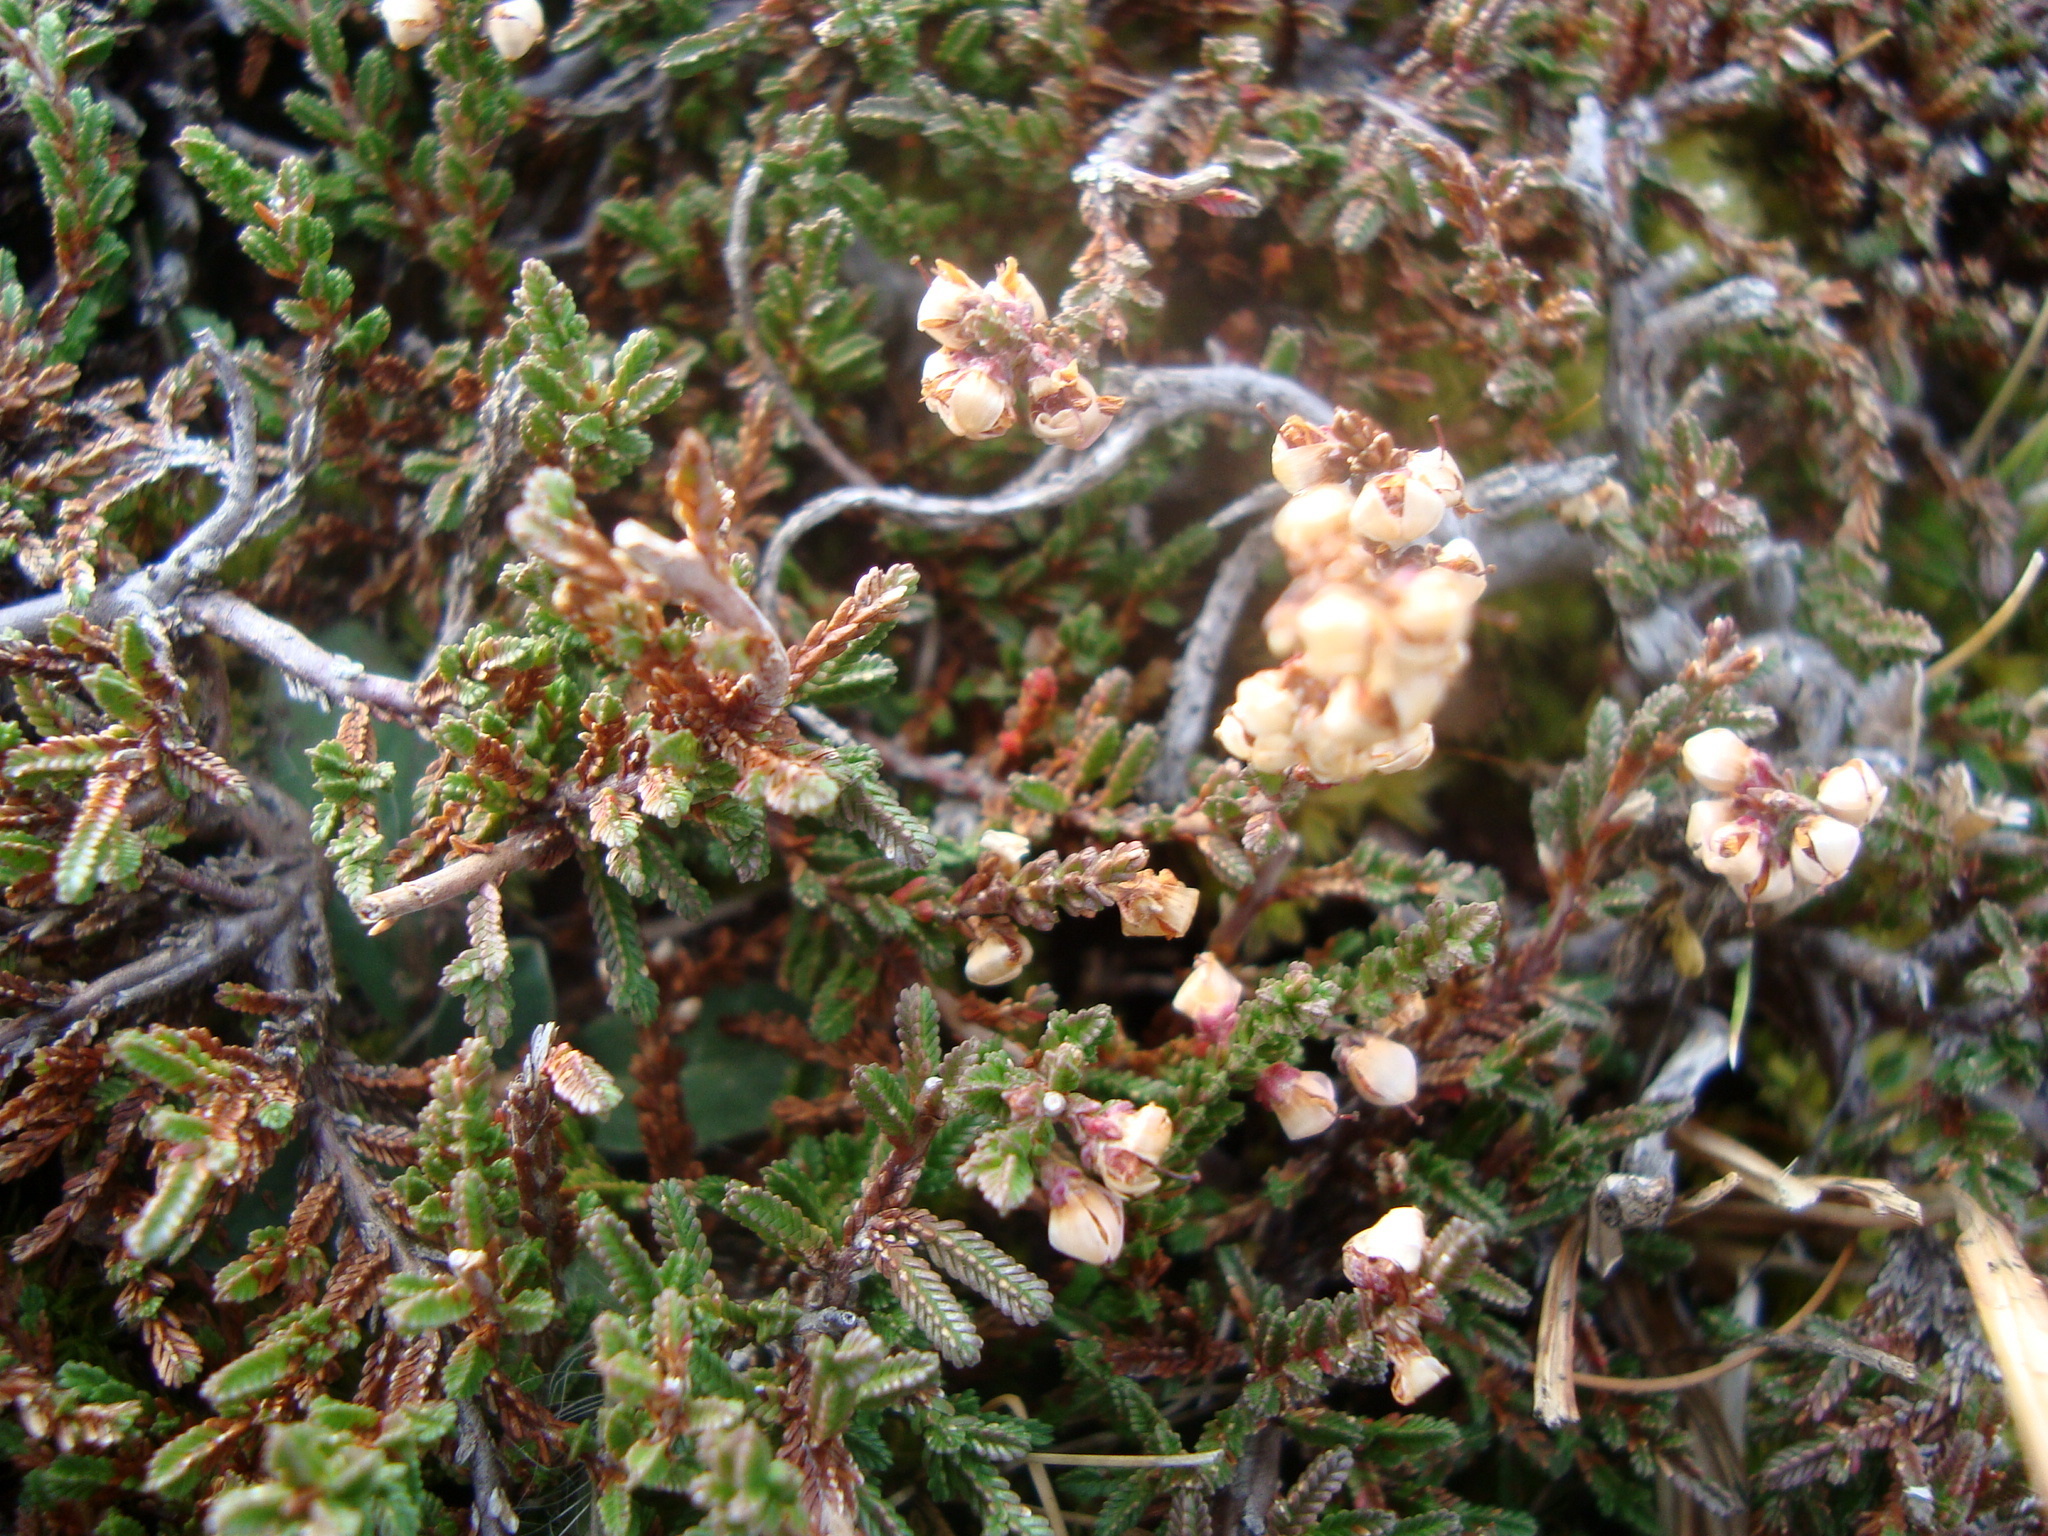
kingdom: Plantae
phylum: Tracheophyta
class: Magnoliopsida
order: Ericales
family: Ericaceae
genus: Calluna
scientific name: Calluna vulgaris
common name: Heather
